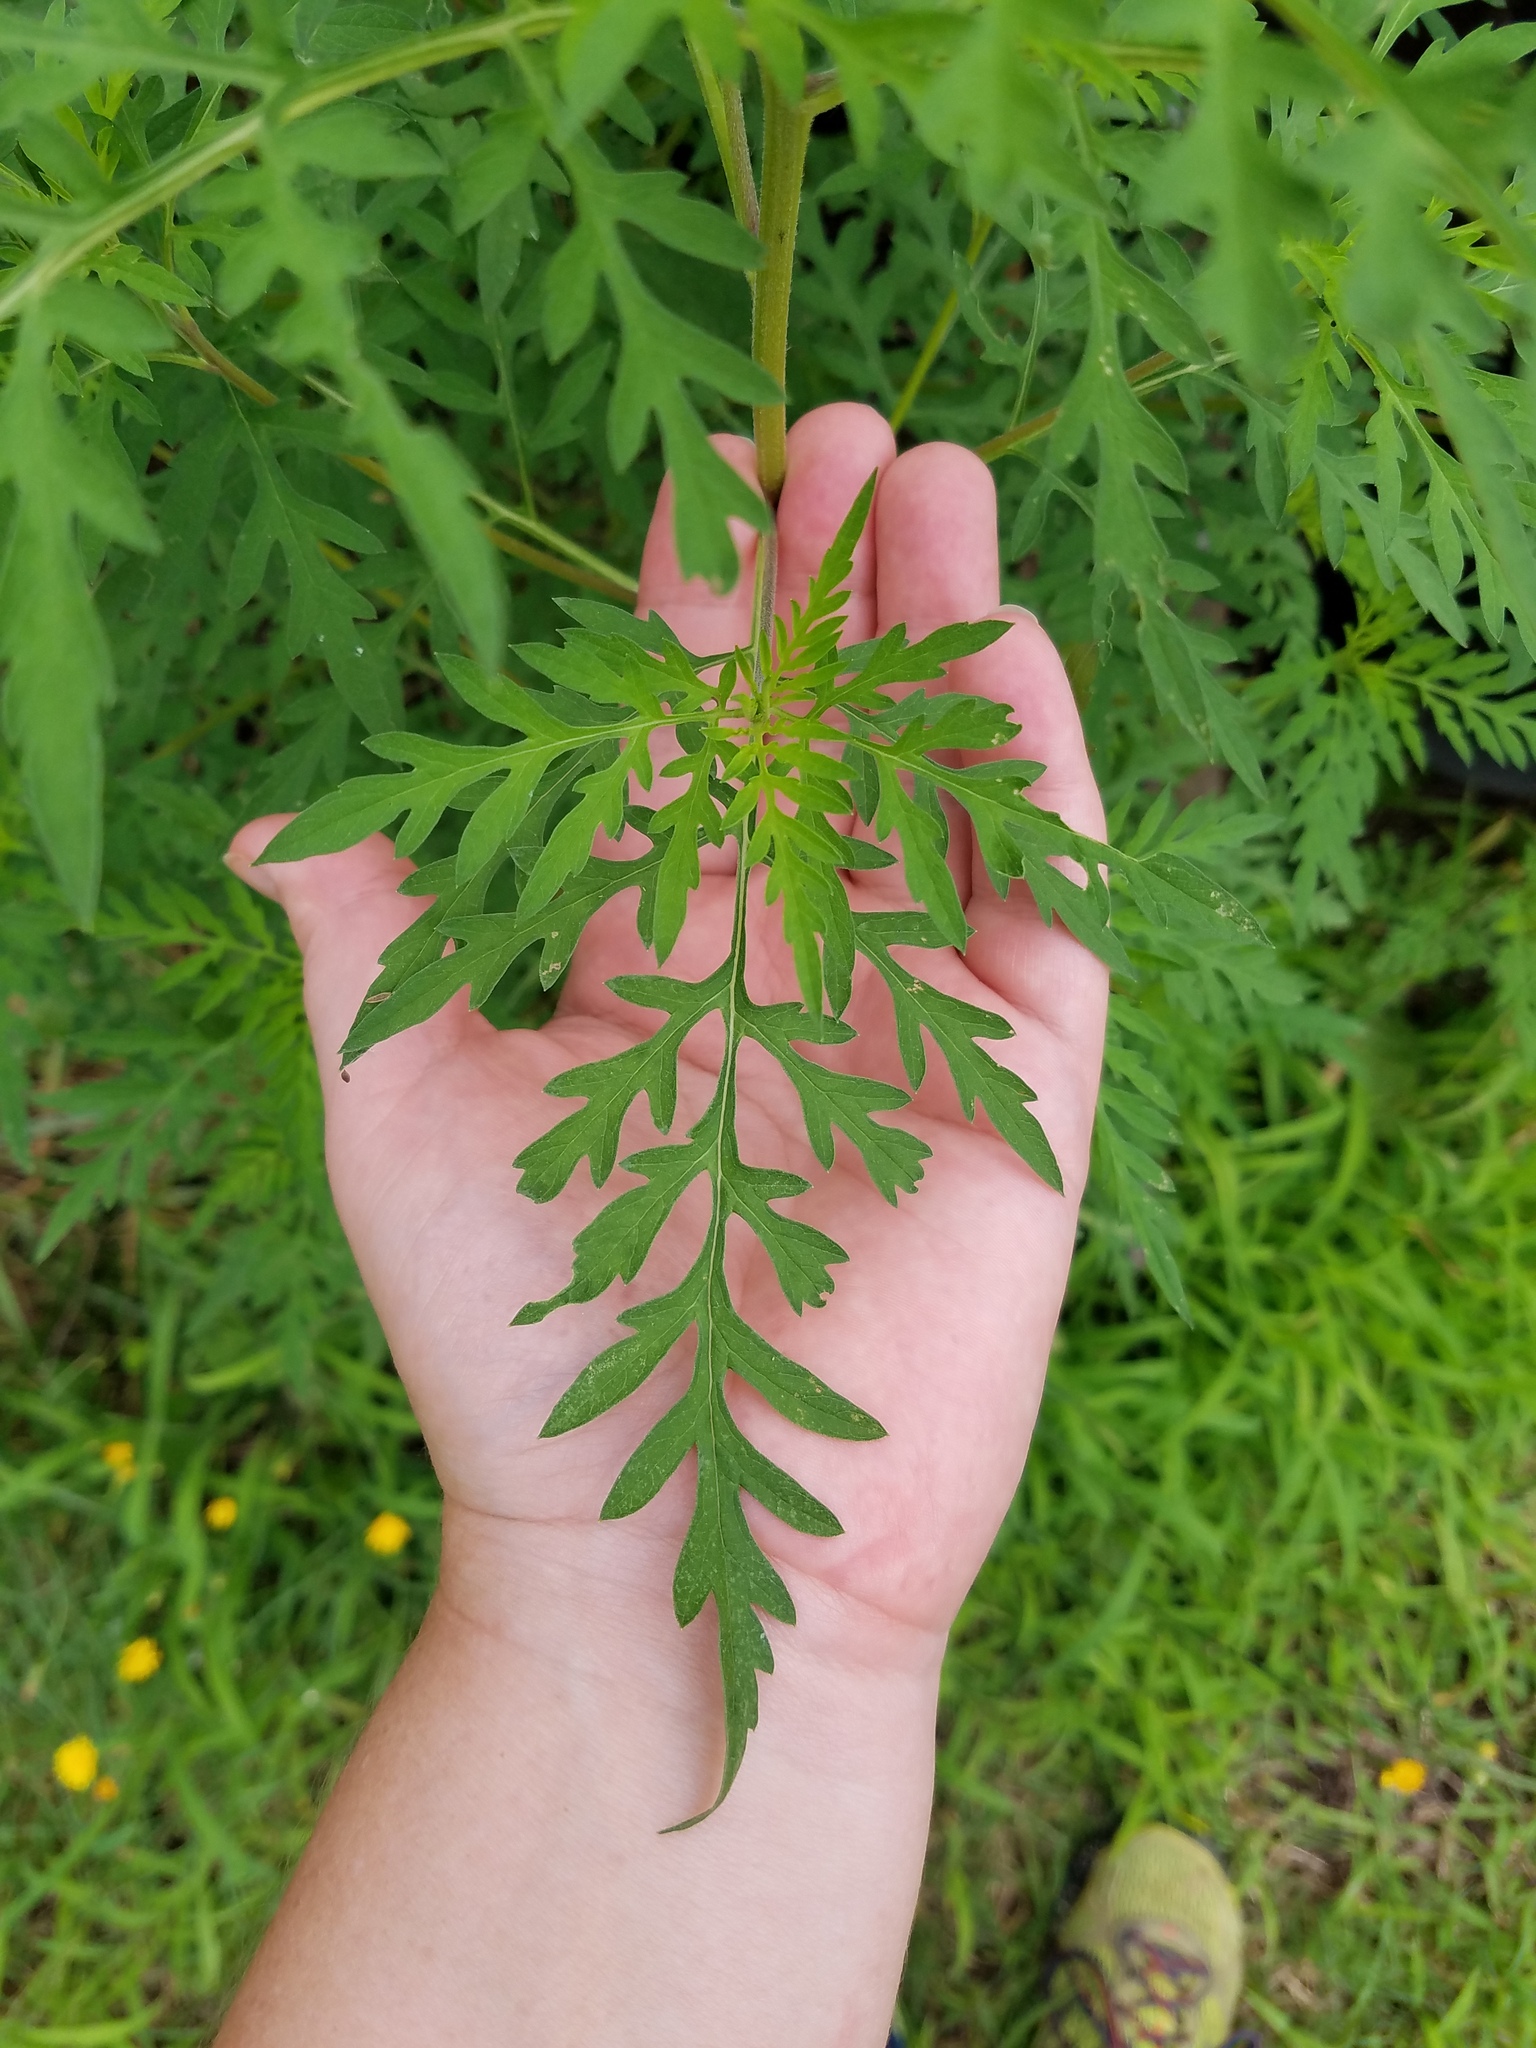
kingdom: Plantae
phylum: Tracheophyta
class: Magnoliopsida
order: Asterales
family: Asteraceae
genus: Ambrosia
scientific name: Ambrosia artemisiifolia
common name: Annual ragweed
